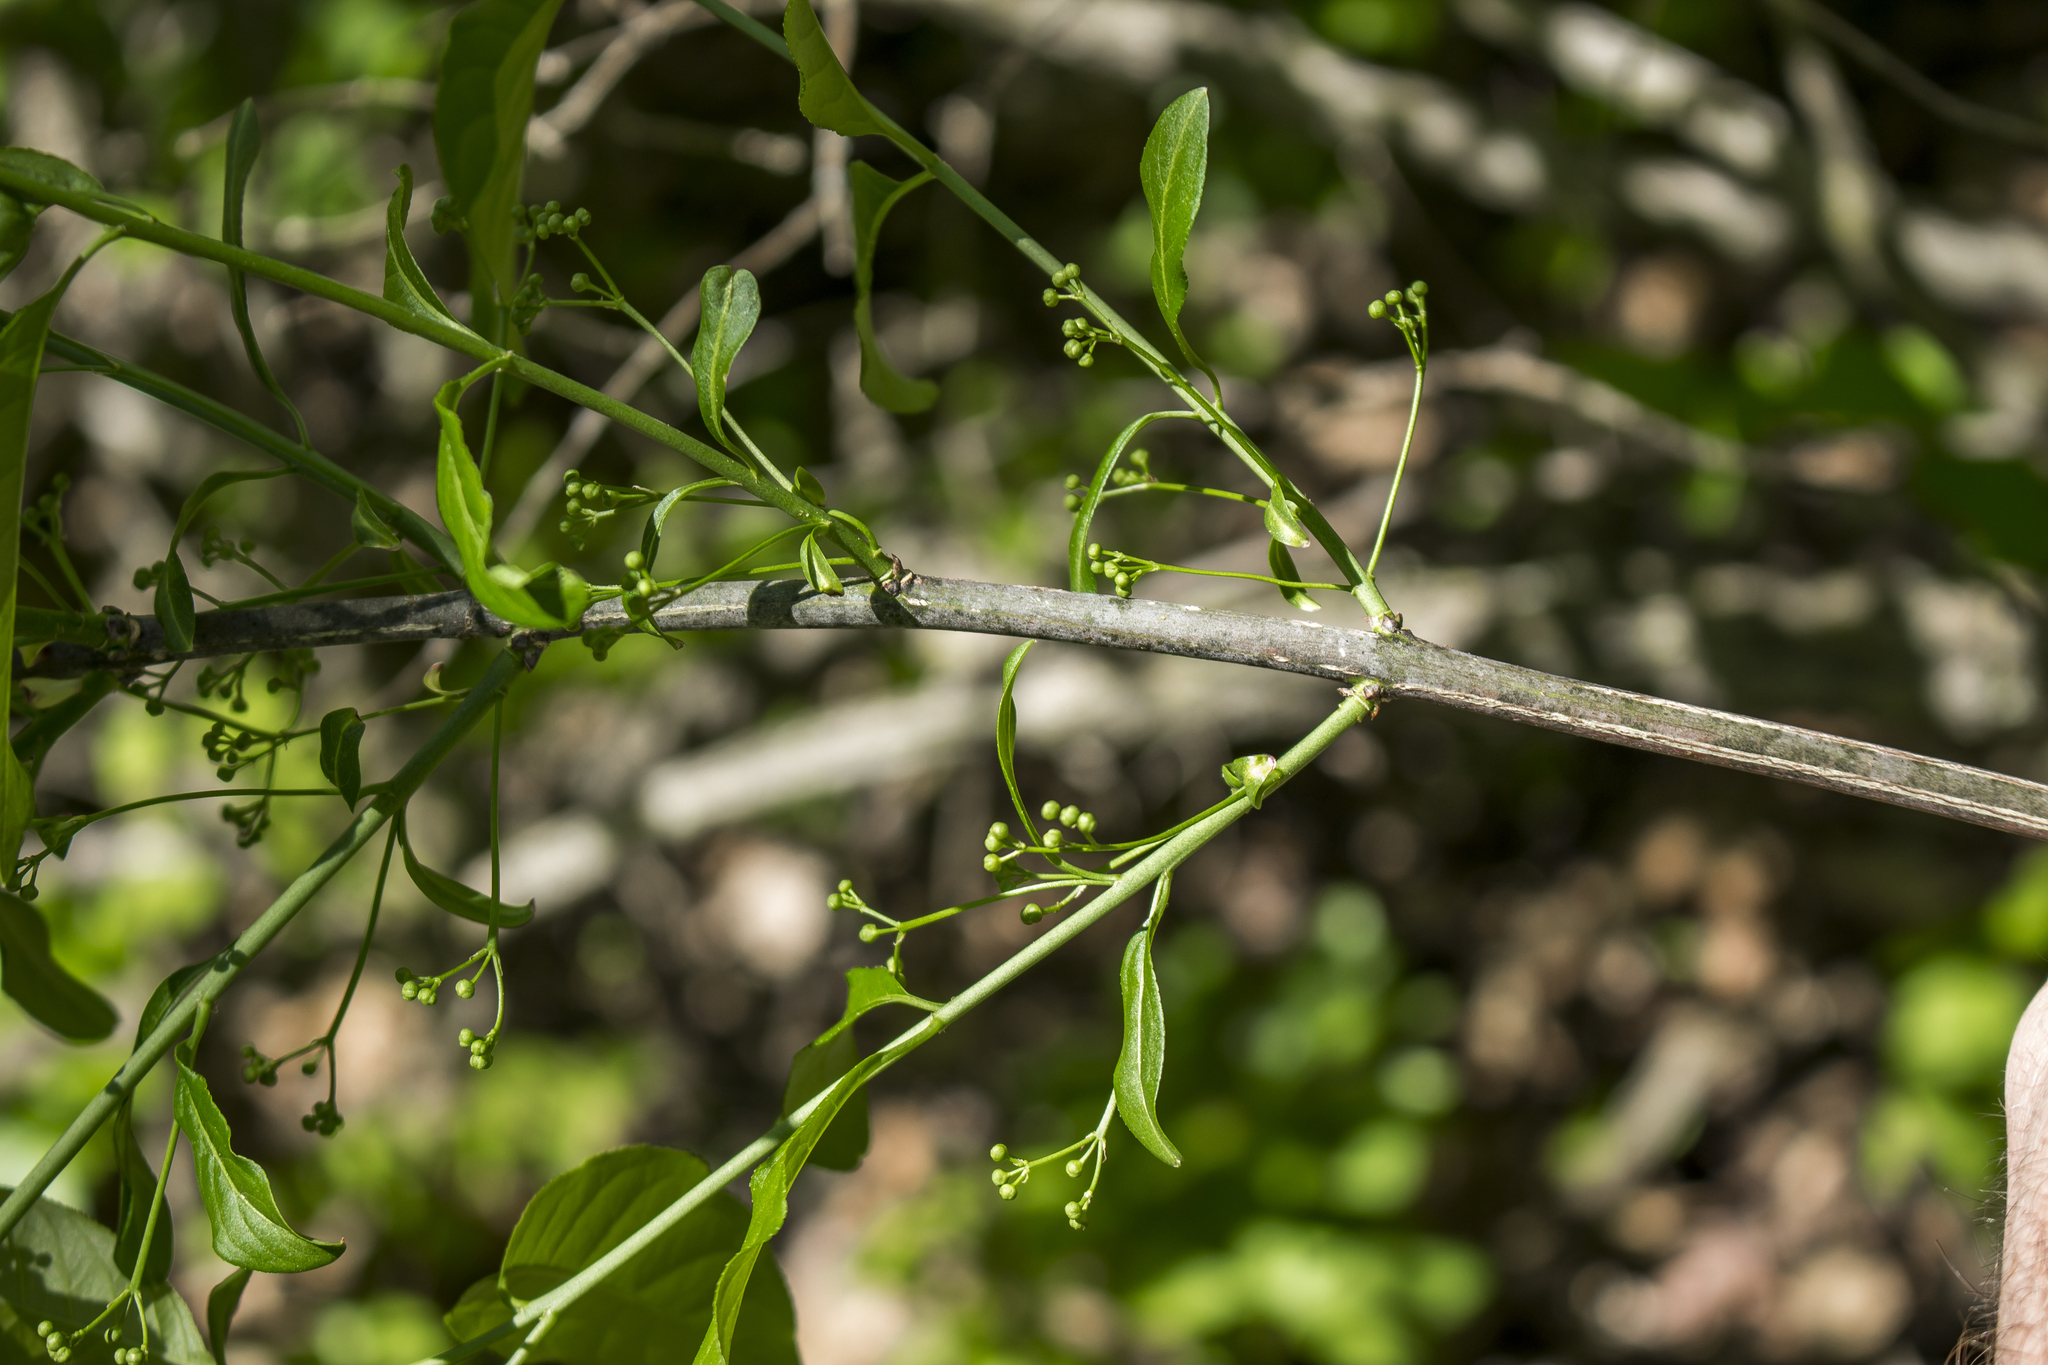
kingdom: Plantae
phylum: Tracheophyta
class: Magnoliopsida
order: Celastrales
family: Celastraceae
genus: Euonymus
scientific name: Euonymus atropurpureus
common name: Eastern wahoo
